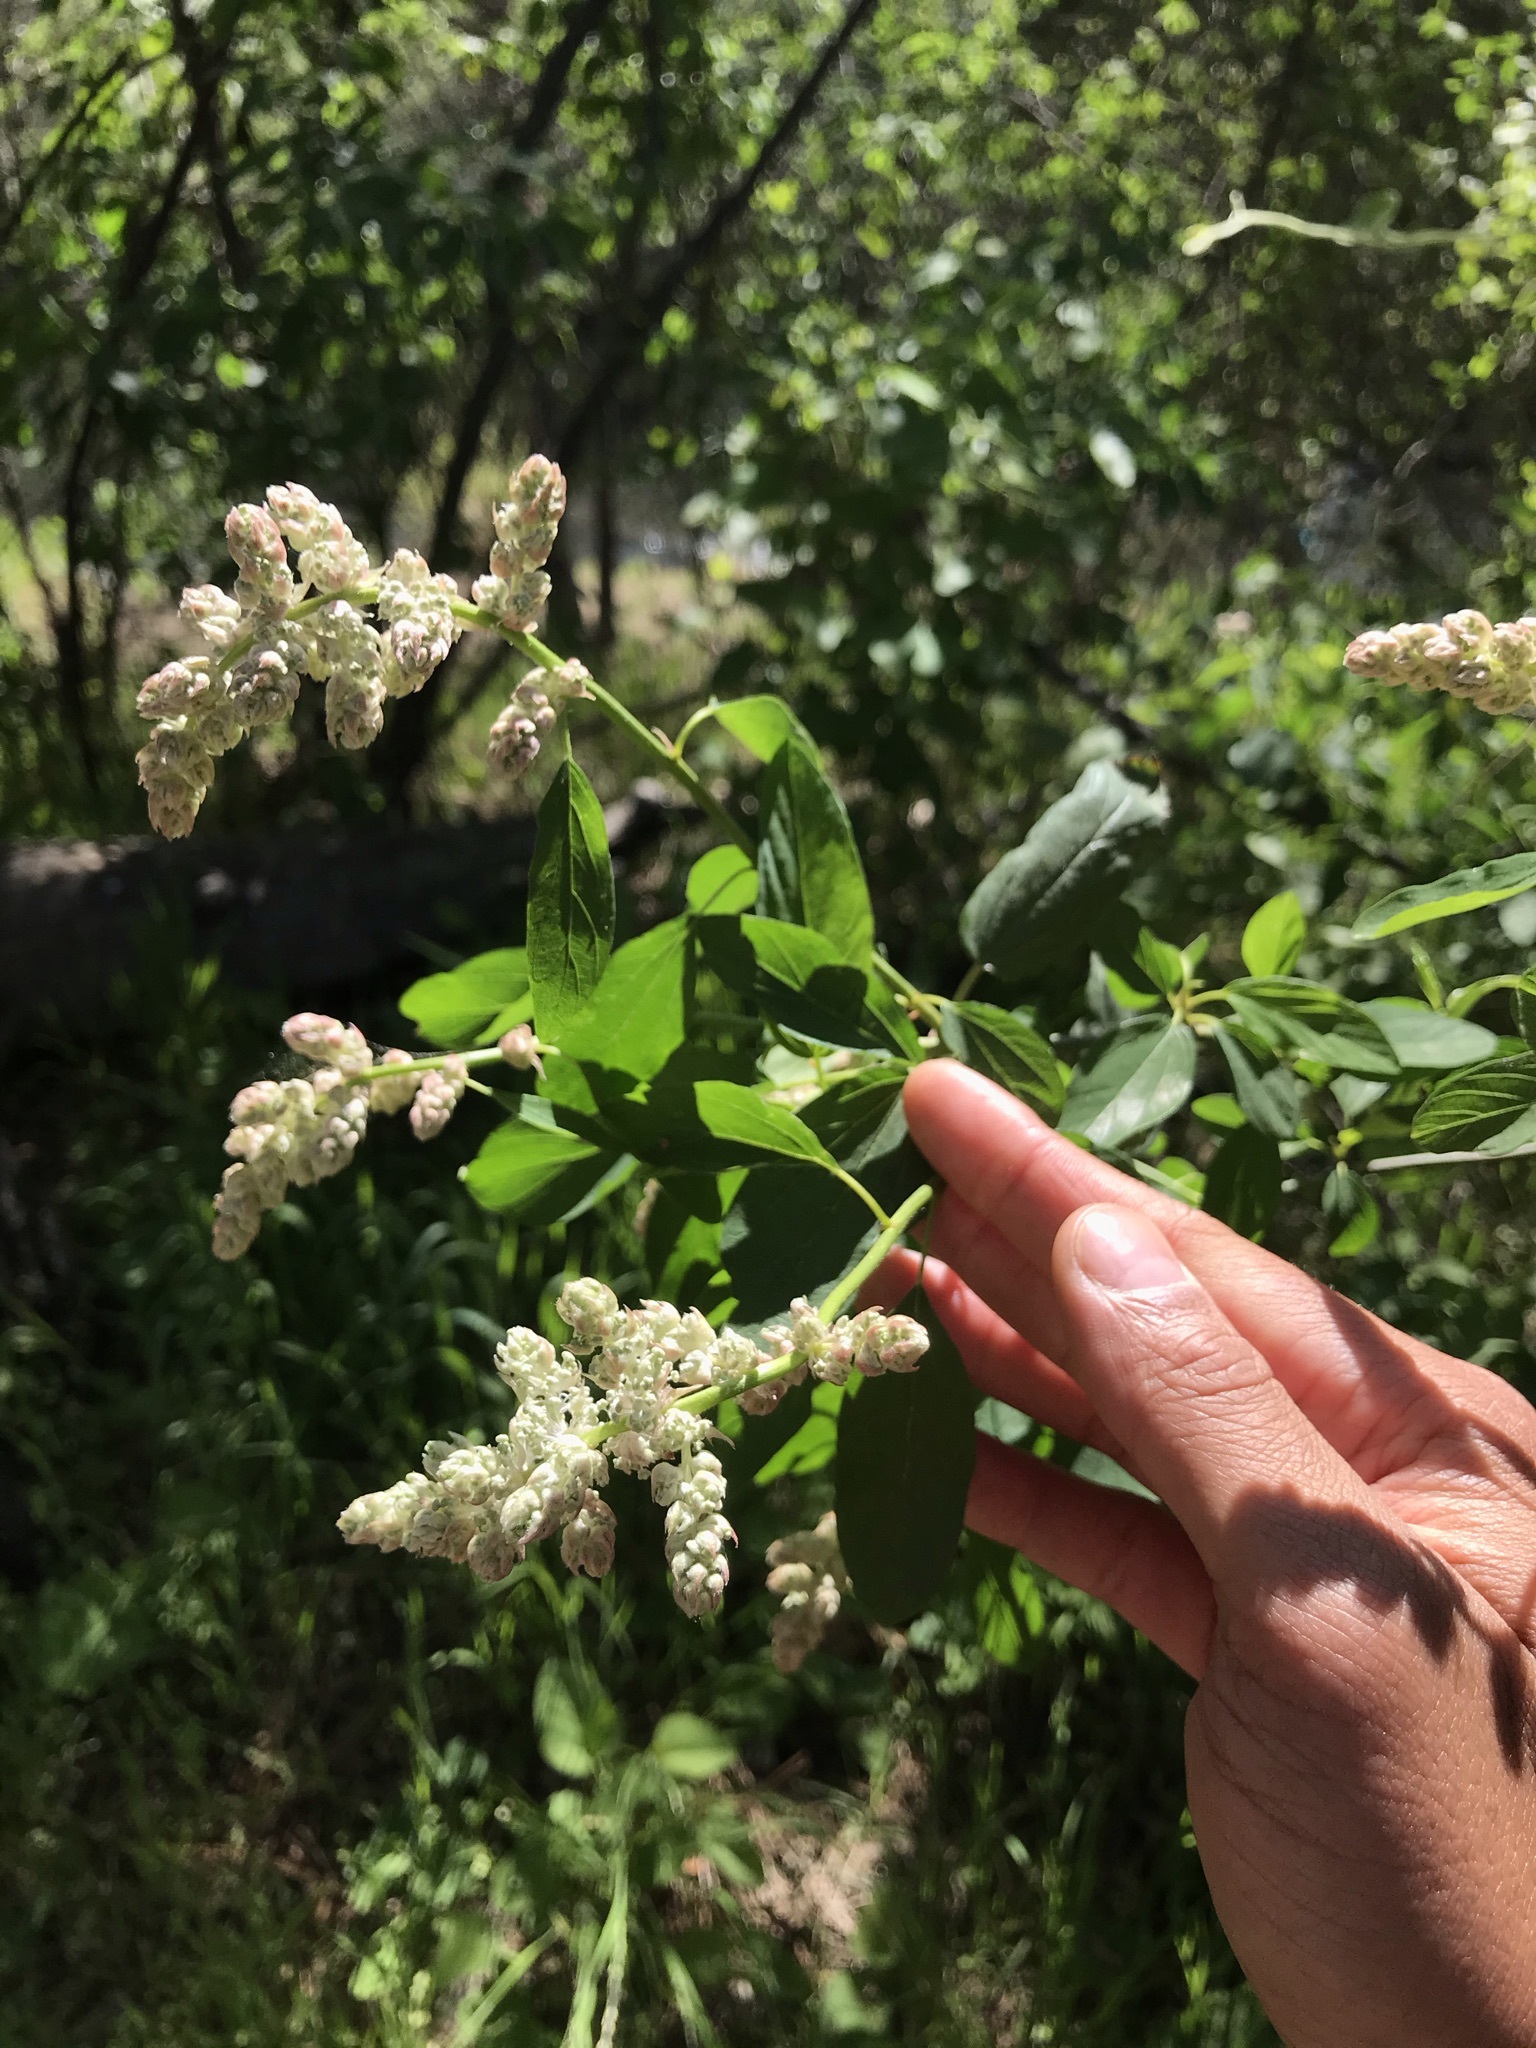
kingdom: Plantae
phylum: Tracheophyta
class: Magnoliopsida
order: Rosales
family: Rhamnaceae
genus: Ceanothus
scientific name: Ceanothus integerrimus
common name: Deerbrush ceanothus
